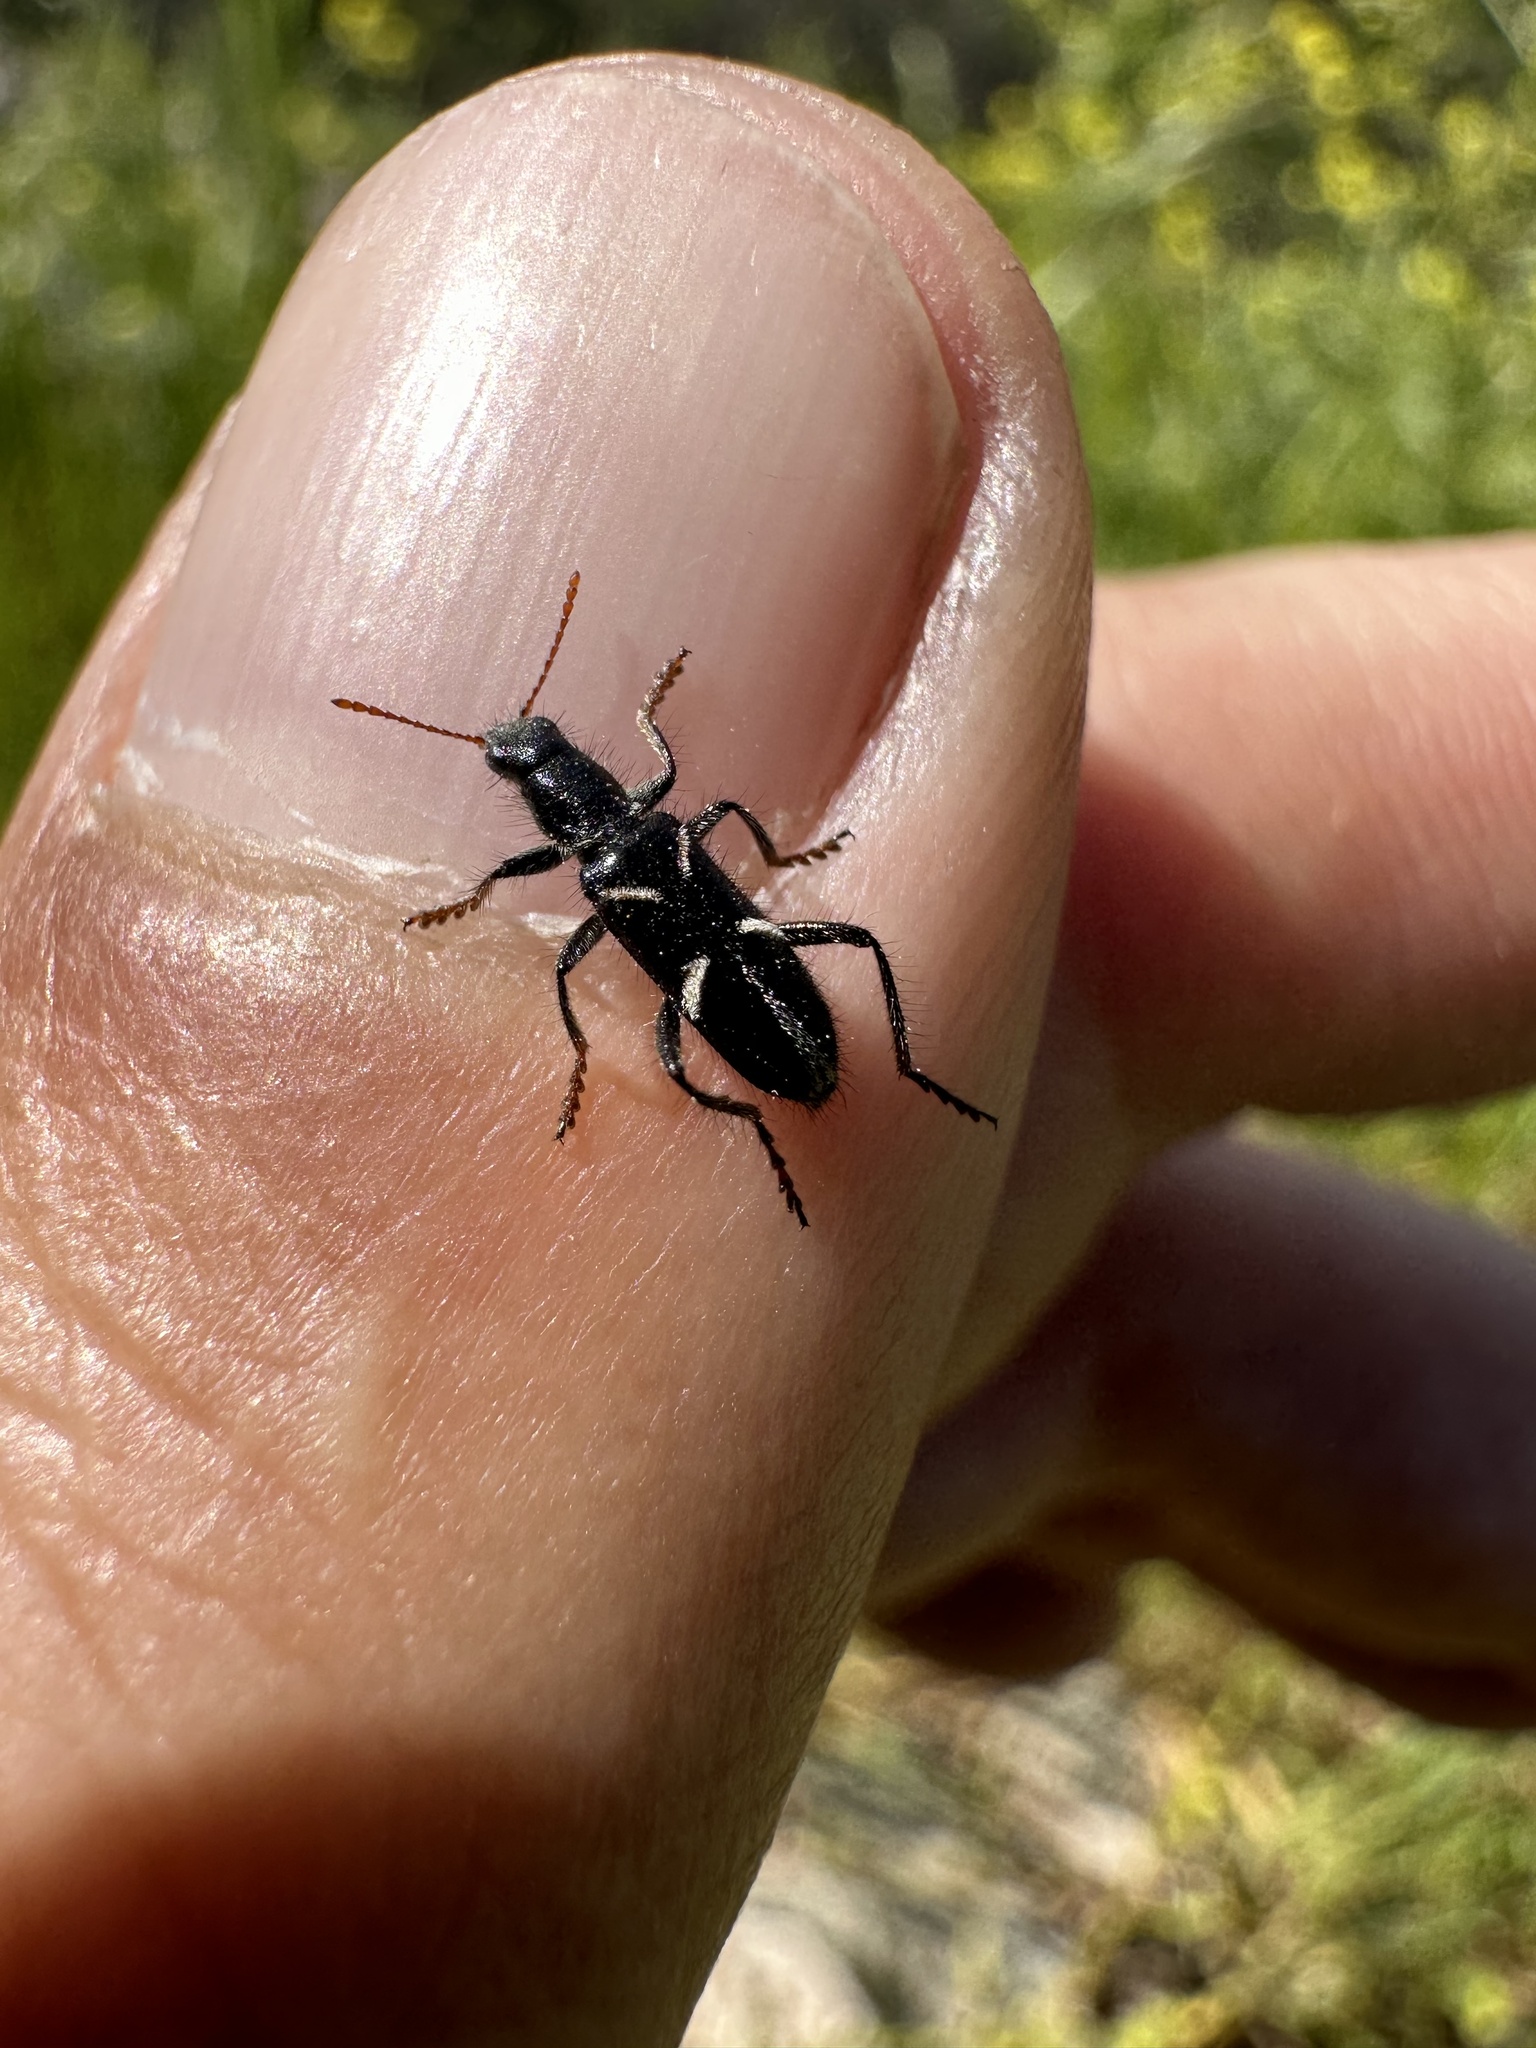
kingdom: Animalia
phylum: Arthropoda
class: Insecta
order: Coleoptera
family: Cleridae
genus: Epiclines
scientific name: Epiclines
